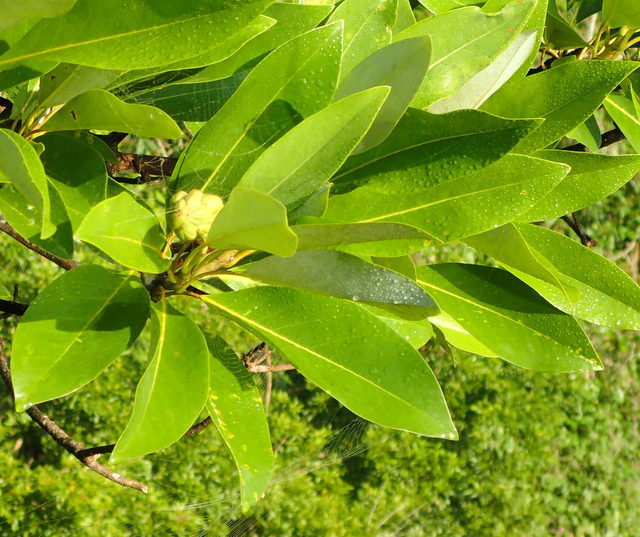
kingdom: Plantae
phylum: Tracheophyta
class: Magnoliopsida
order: Magnoliales
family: Magnoliaceae
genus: Magnolia
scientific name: Magnolia virginiana
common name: Swamp bay
